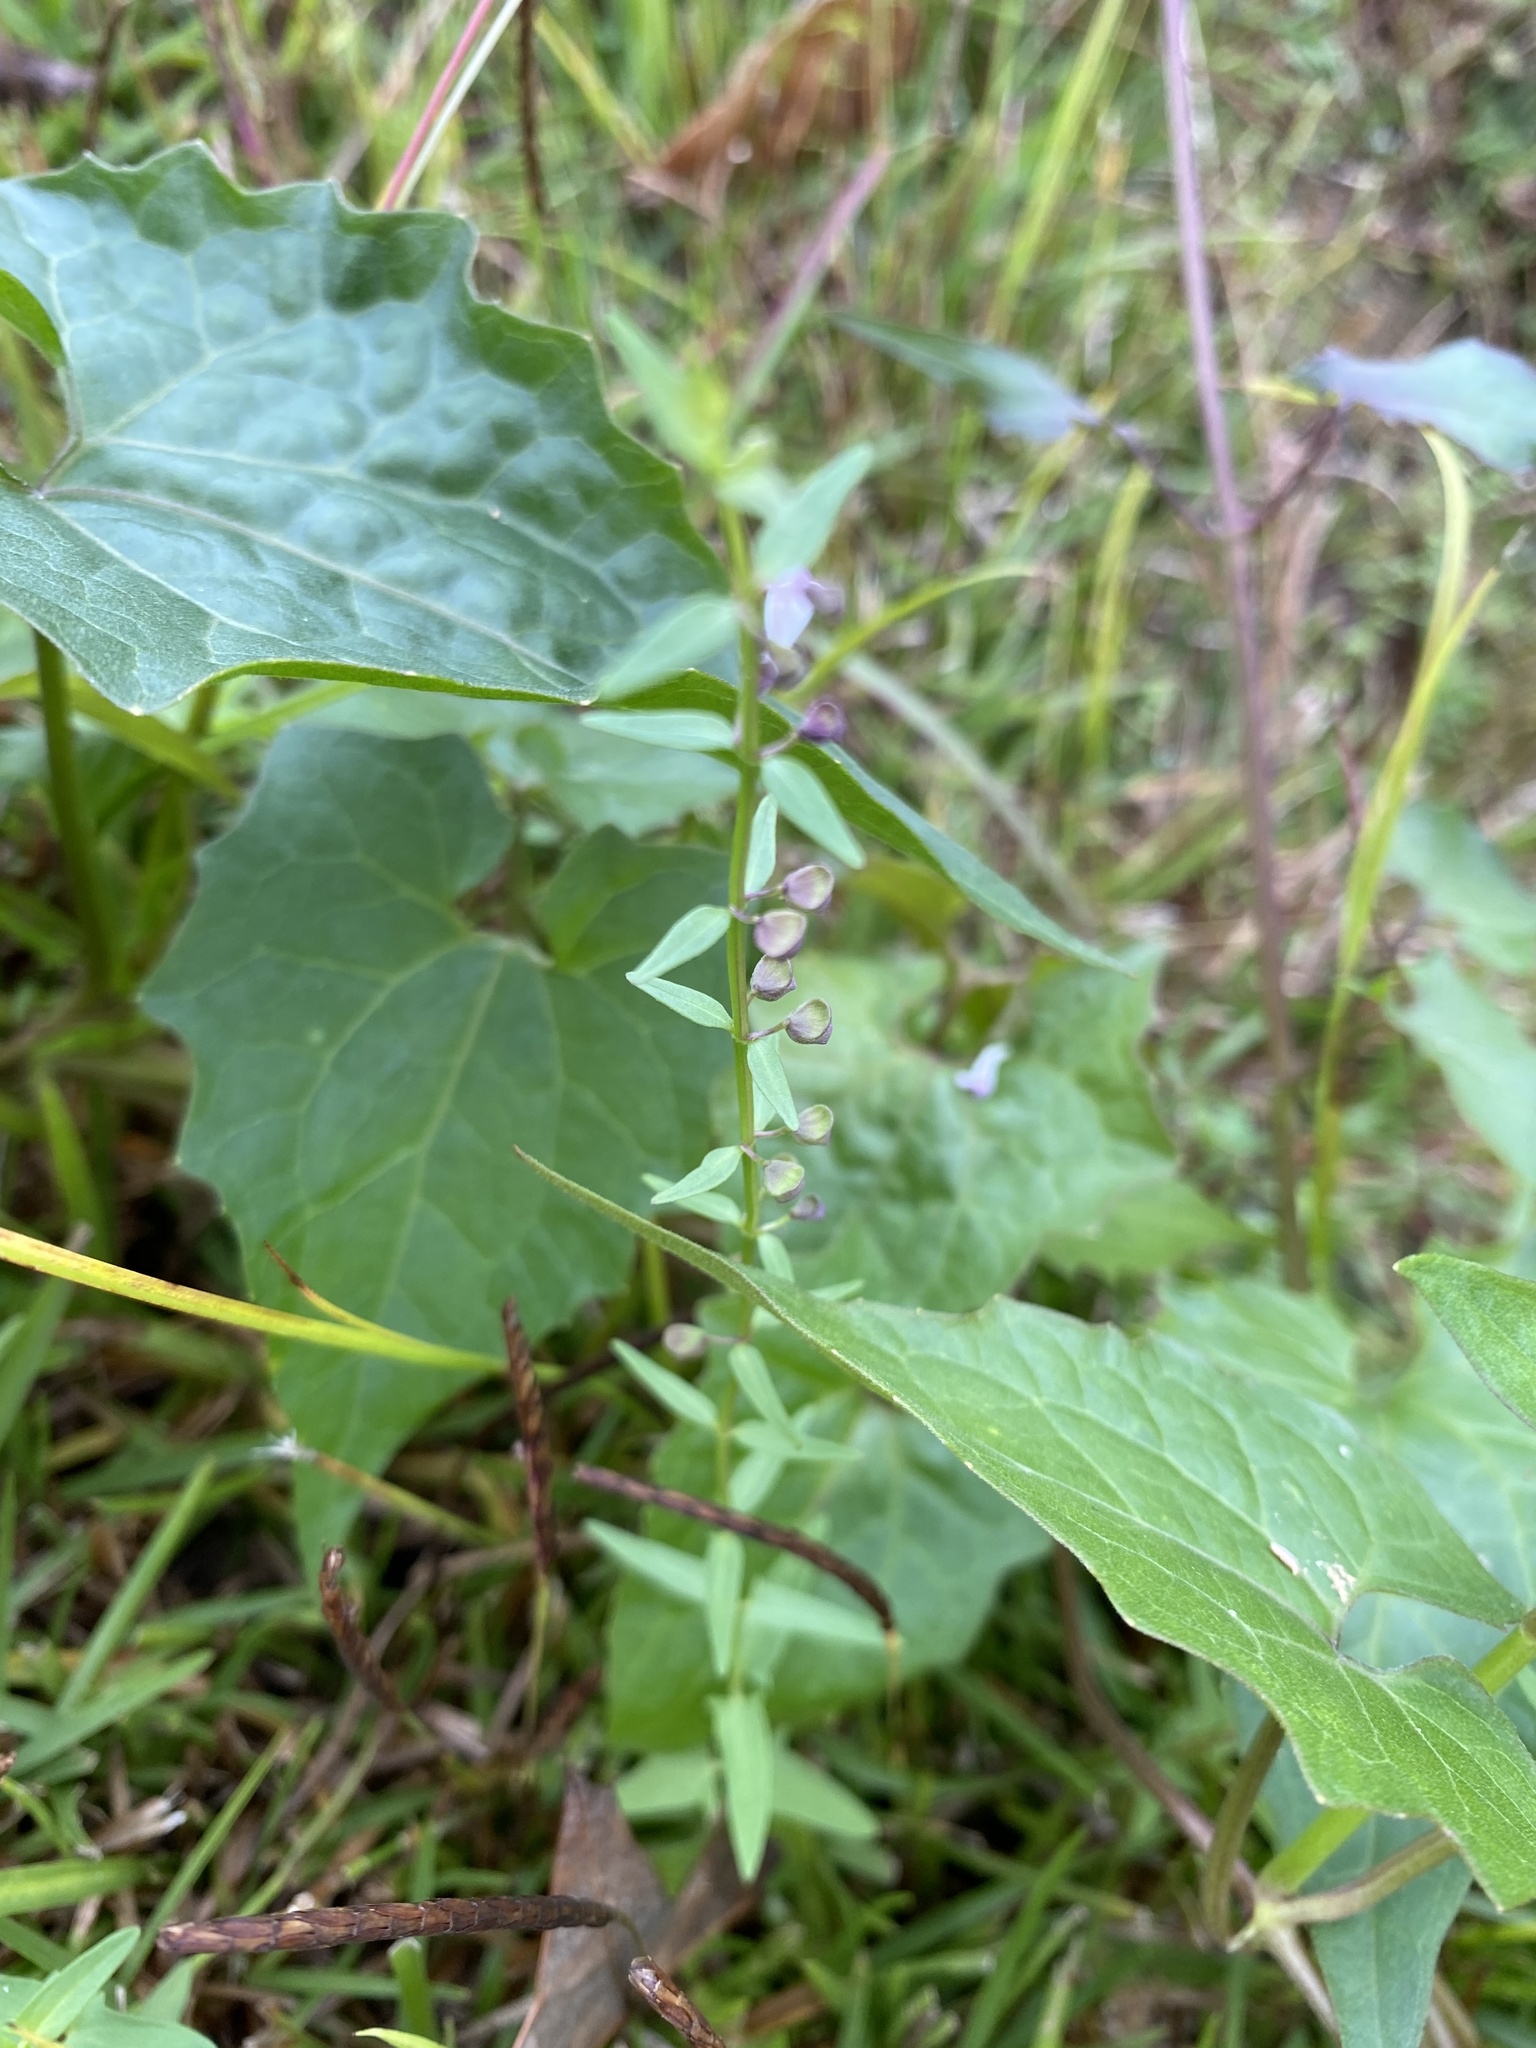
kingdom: Plantae
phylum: Tracheophyta
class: Magnoliopsida
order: Lamiales
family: Lamiaceae
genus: Scutellaria
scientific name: Scutellaria racemosa
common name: South american skullcap
